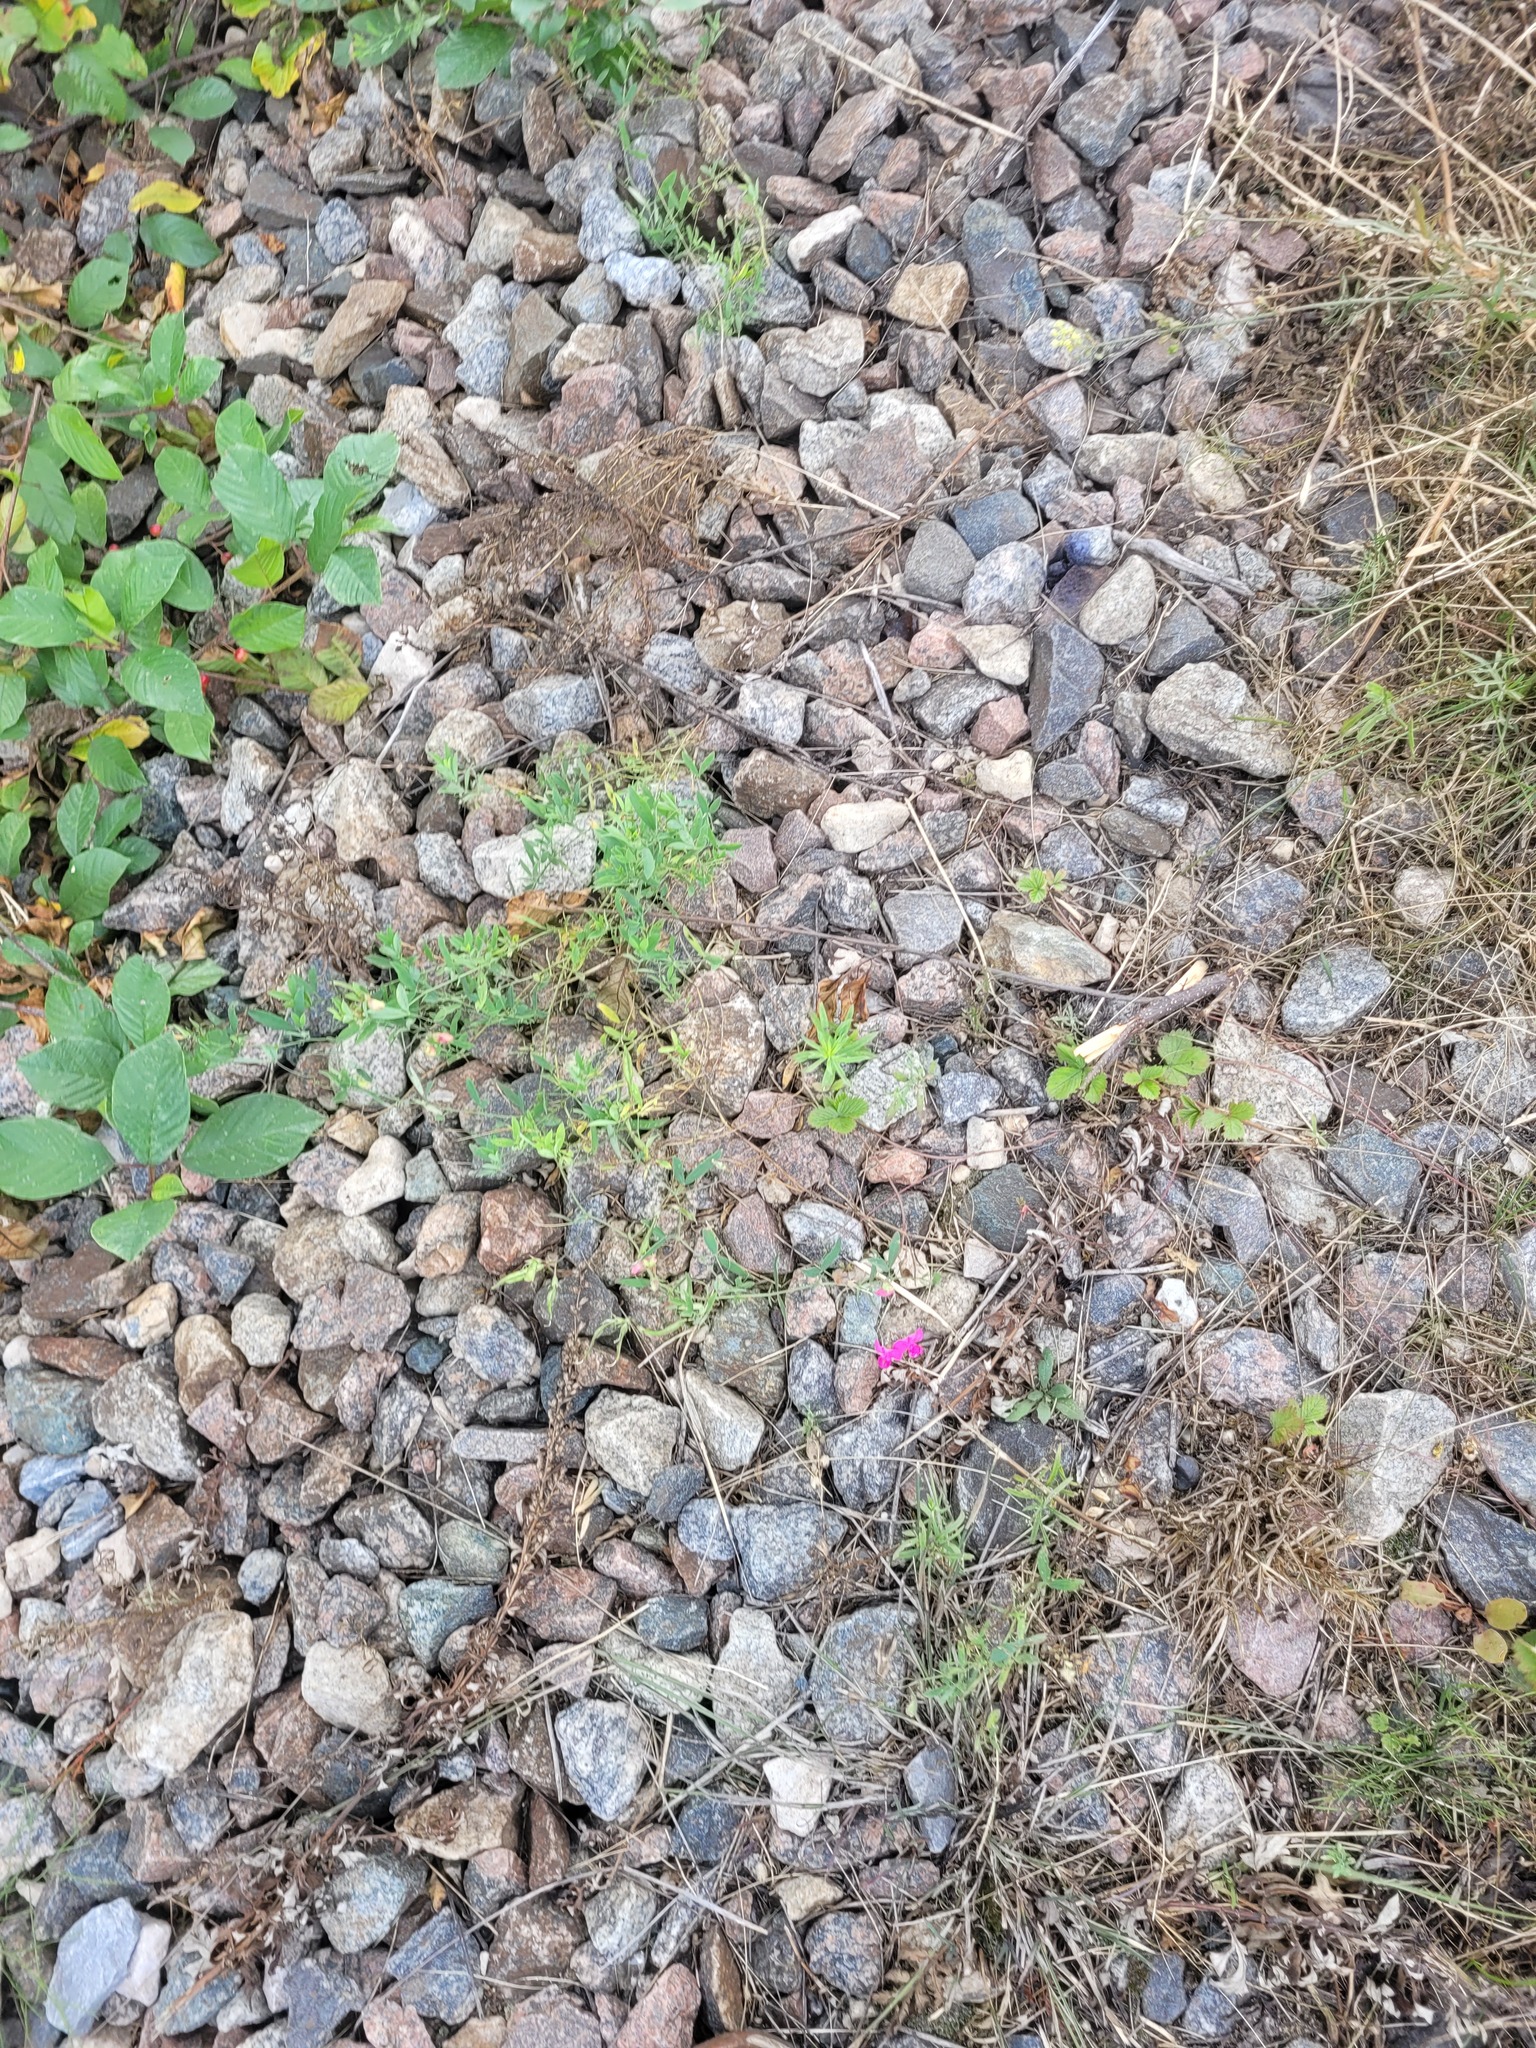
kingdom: Plantae
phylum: Tracheophyta
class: Magnoliopsida
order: Fabales
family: Fabaceae
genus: Lathyrus
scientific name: Lathyrus tuberosus
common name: Tuberous pea
